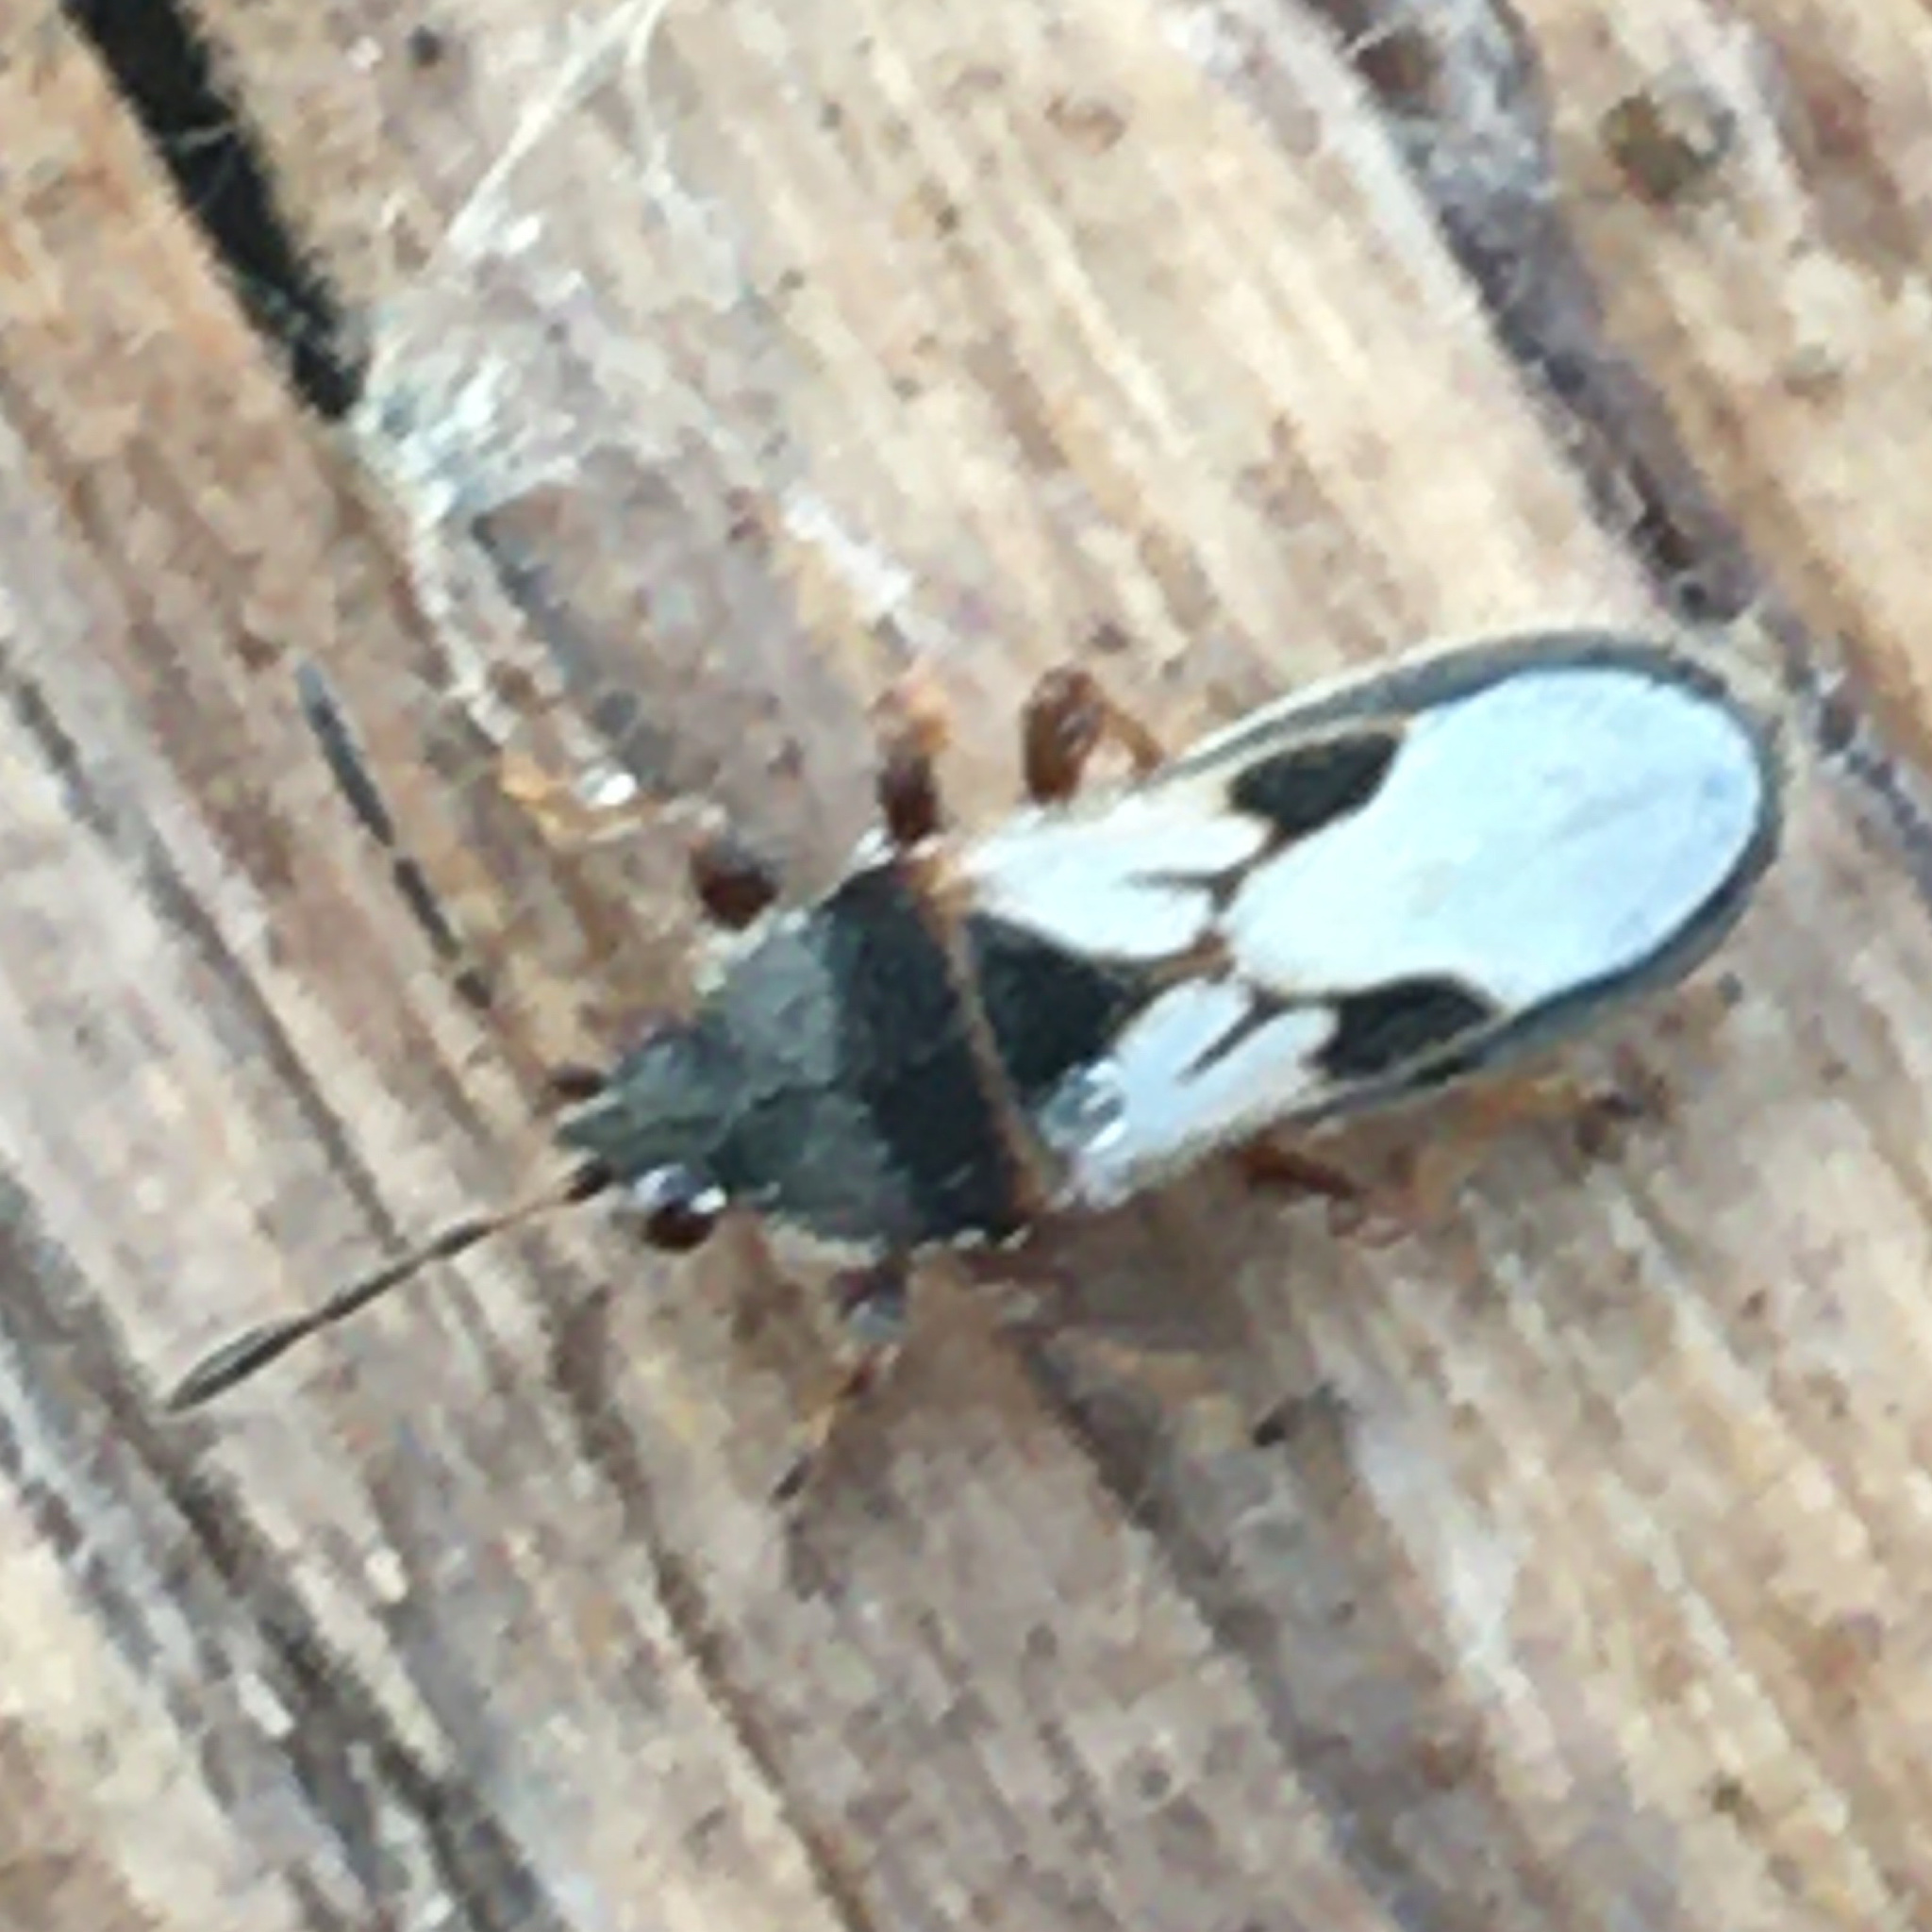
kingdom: Animalia
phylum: Arthropoda
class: Insecta
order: Hemiptera
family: Blissidae
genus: Blissus
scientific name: Blissus leucopterus
